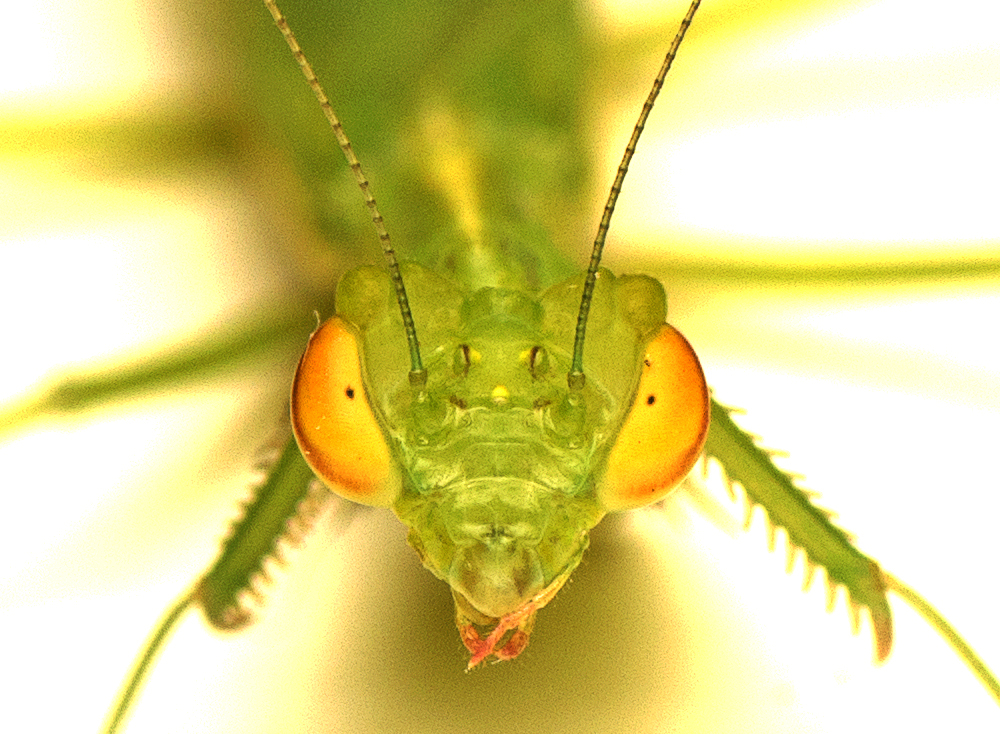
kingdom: Animalia
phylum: Arthropoda
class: Insecta
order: Mantodea
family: Nanomantidae
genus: Kongobatha
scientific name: Kongobatha diademata
